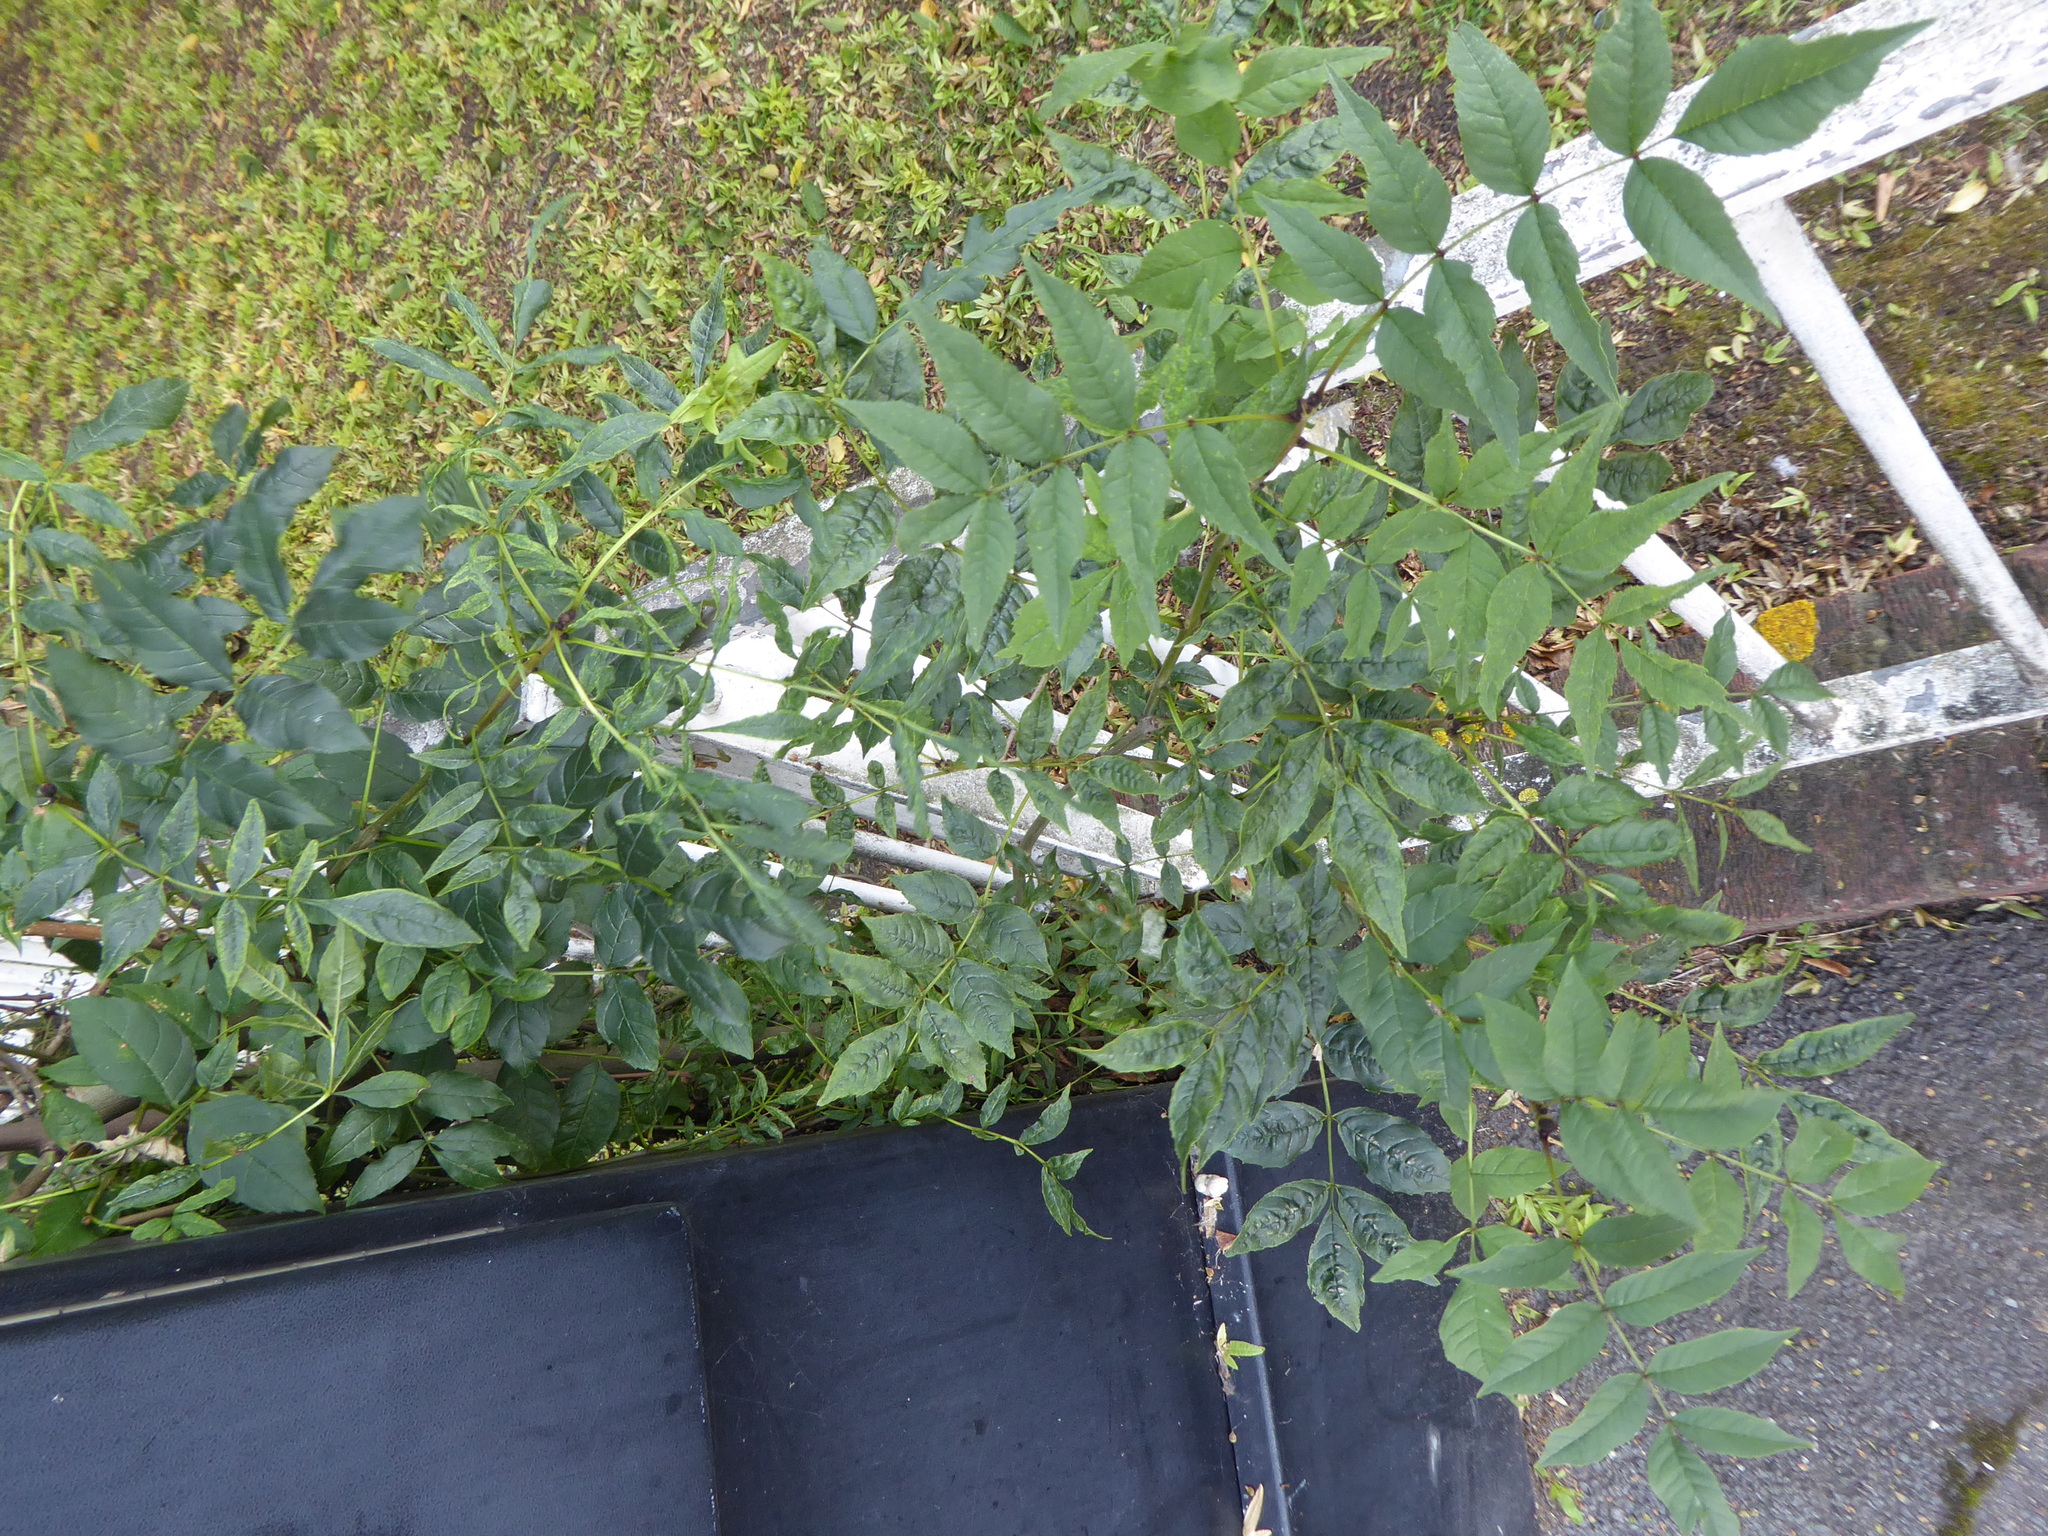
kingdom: Plantae
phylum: Tracheophyta
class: Magnoliopsida
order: Lamiales
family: Oleaceae
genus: Fraxinus
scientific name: Fraxinus excelsior
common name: European ash
